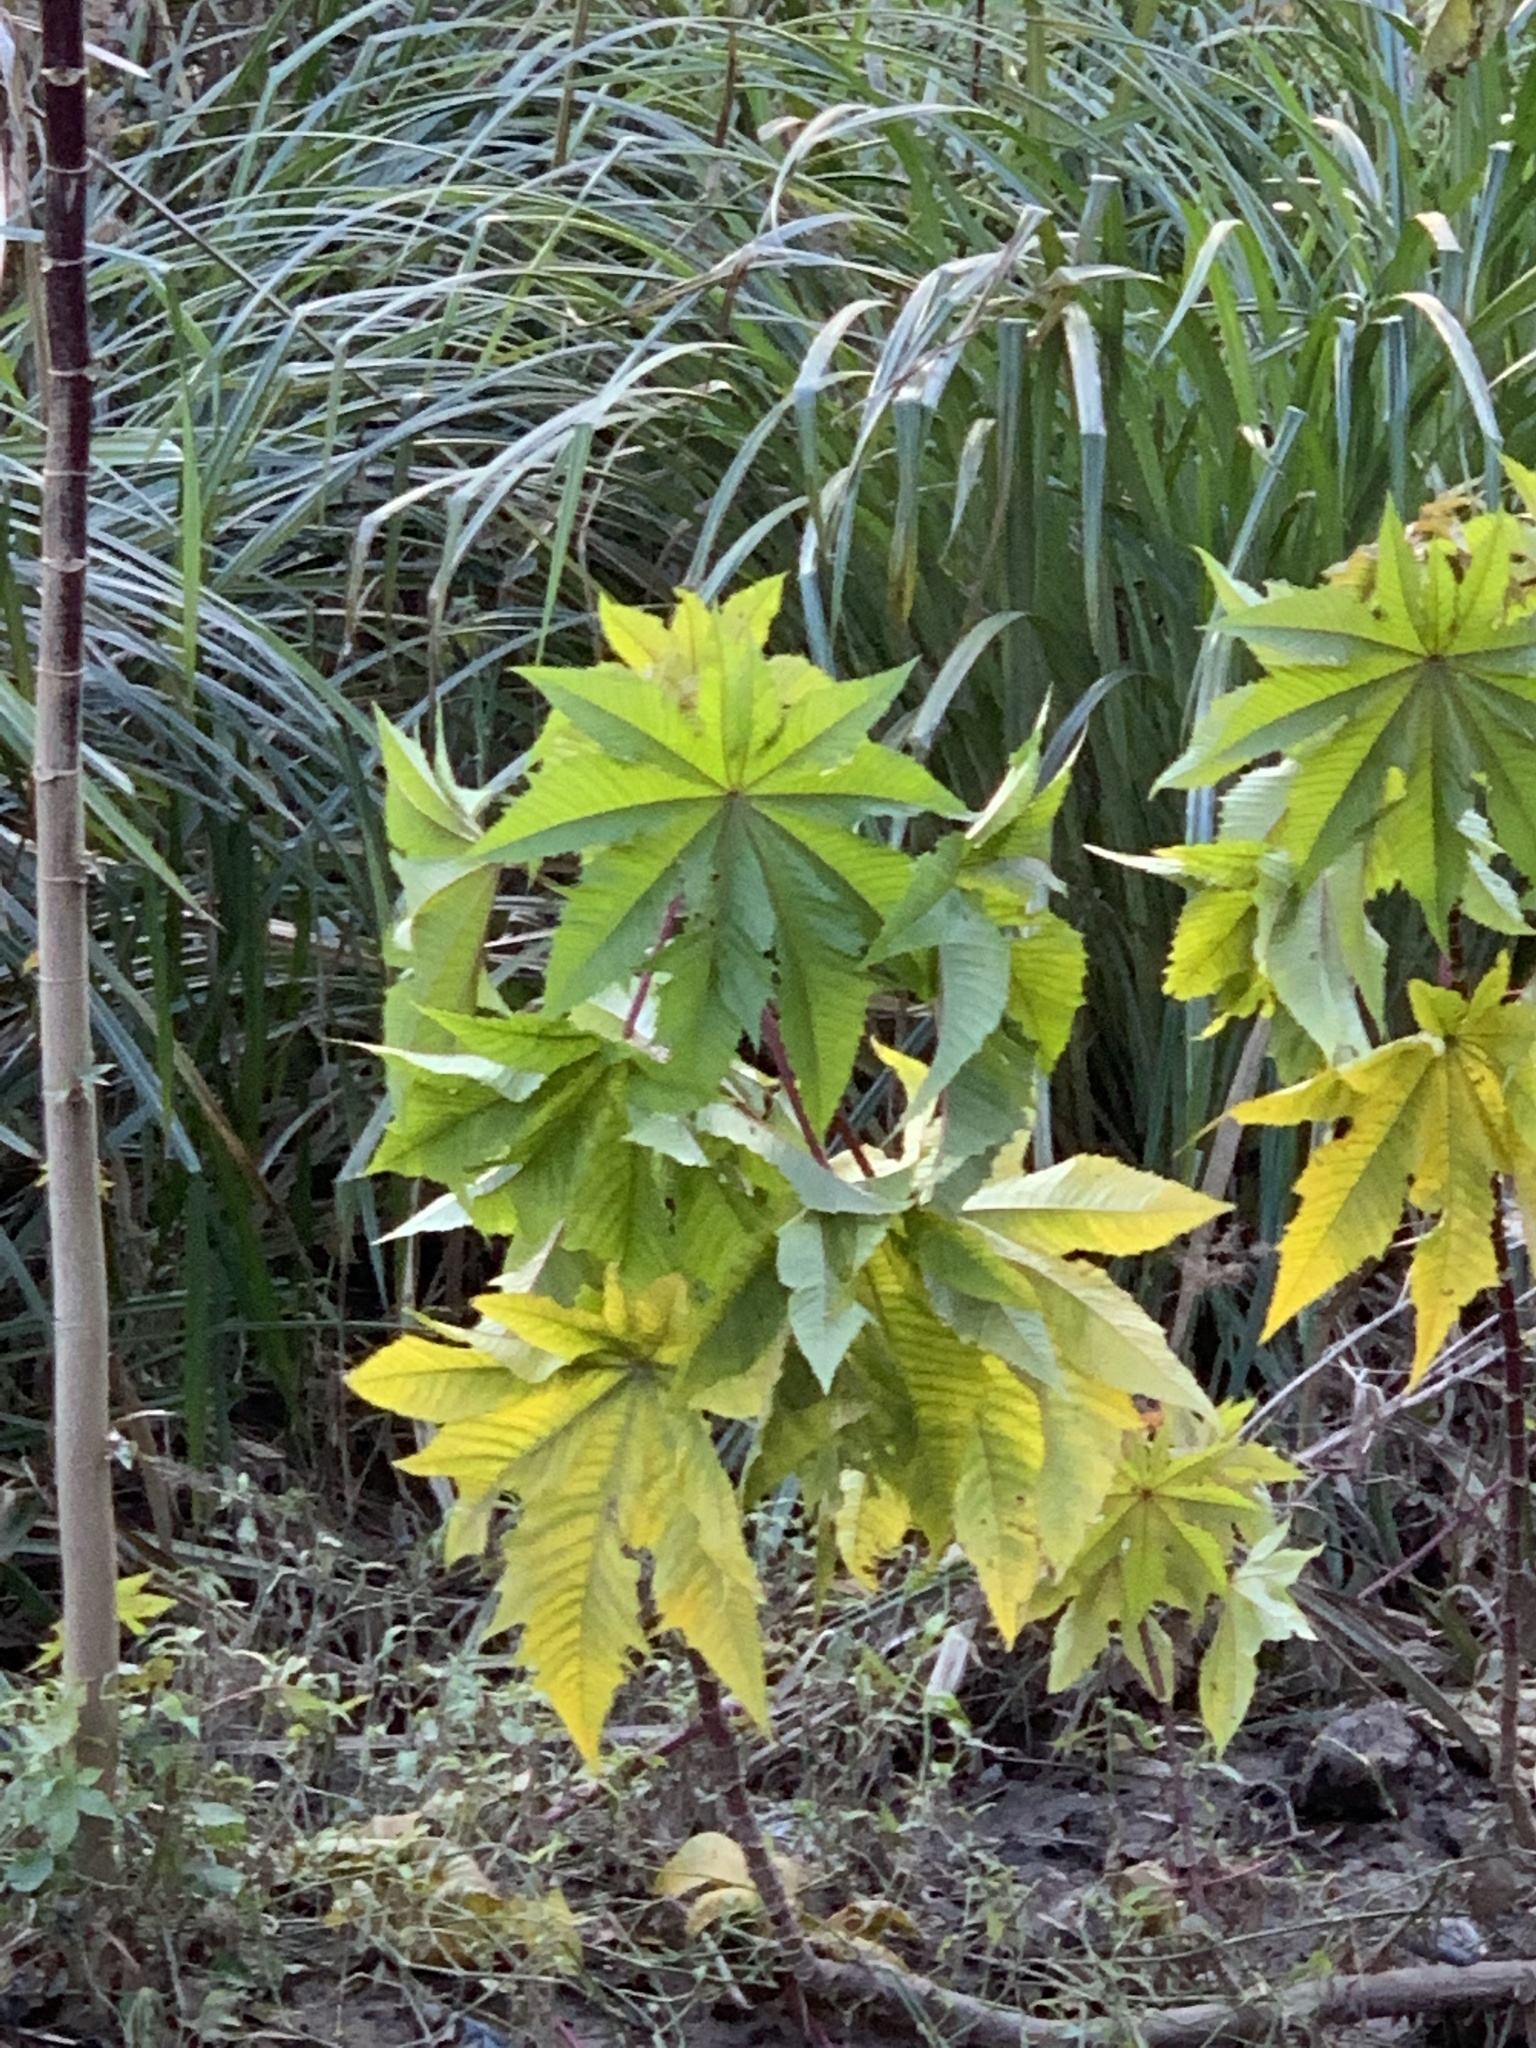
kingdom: Plantae
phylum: Tracheophyta
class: Magnoliopsida
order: Malpighiales
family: Euphorbiaceae
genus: Ricinus
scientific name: Ricinus communis
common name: Castor-oil-plant
